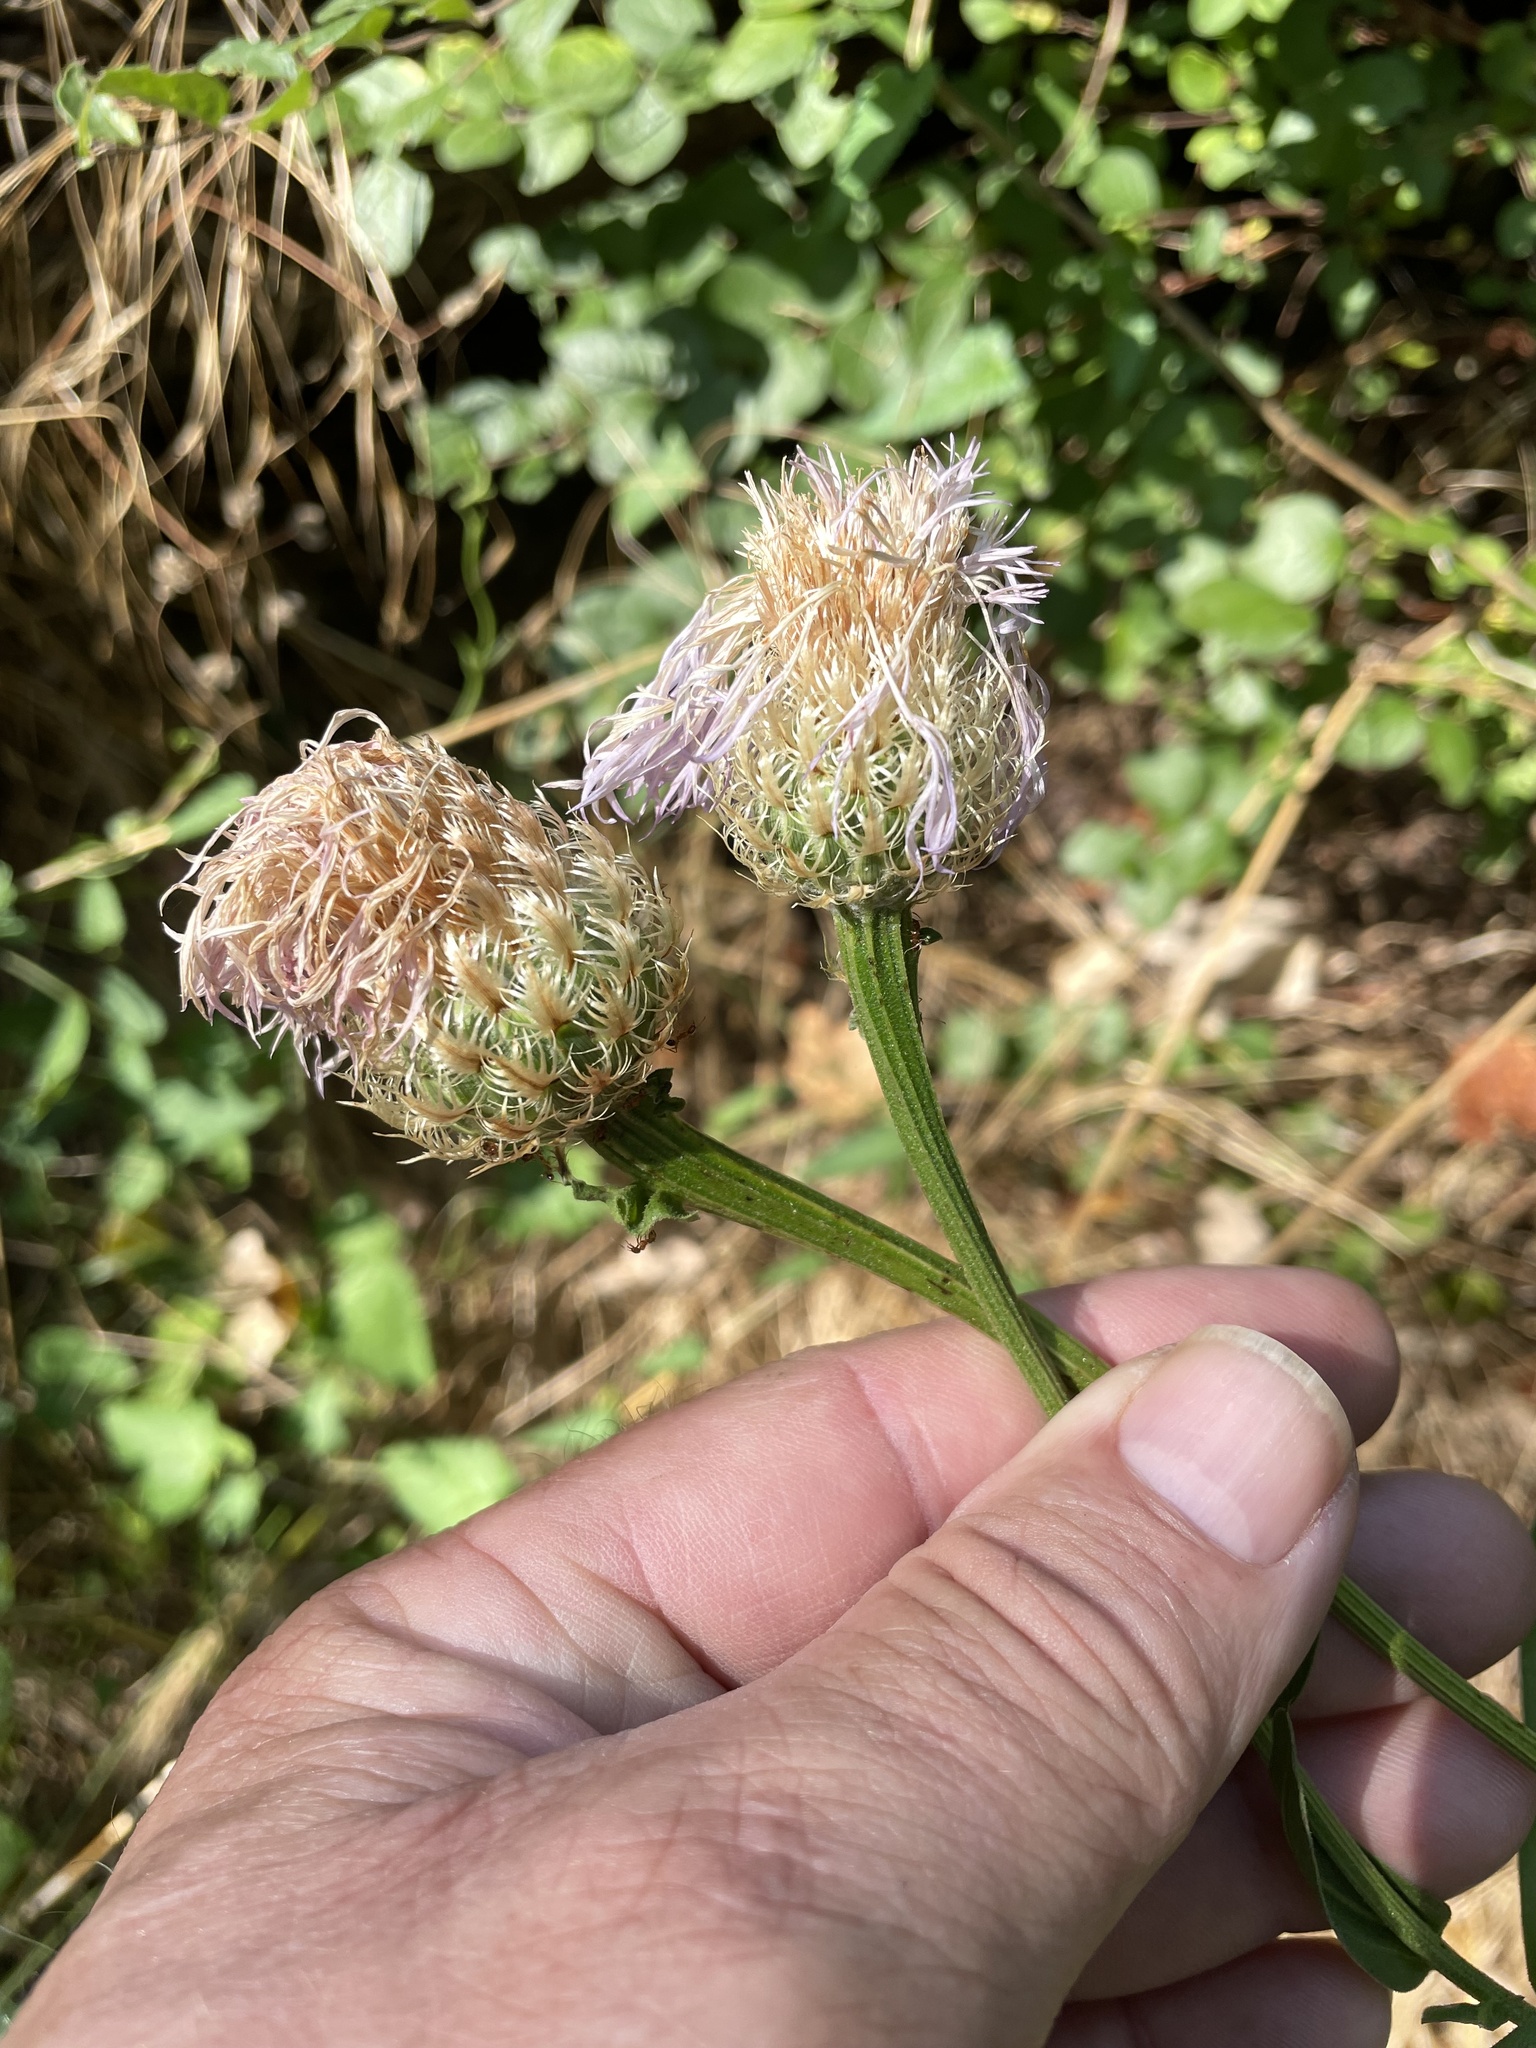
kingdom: Plantae
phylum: Tracheophyta
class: Magnoliopsida
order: Asterales
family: Asteraceae
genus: Plectocephalus
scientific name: Plectocephalus americanus
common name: American basket-flower
